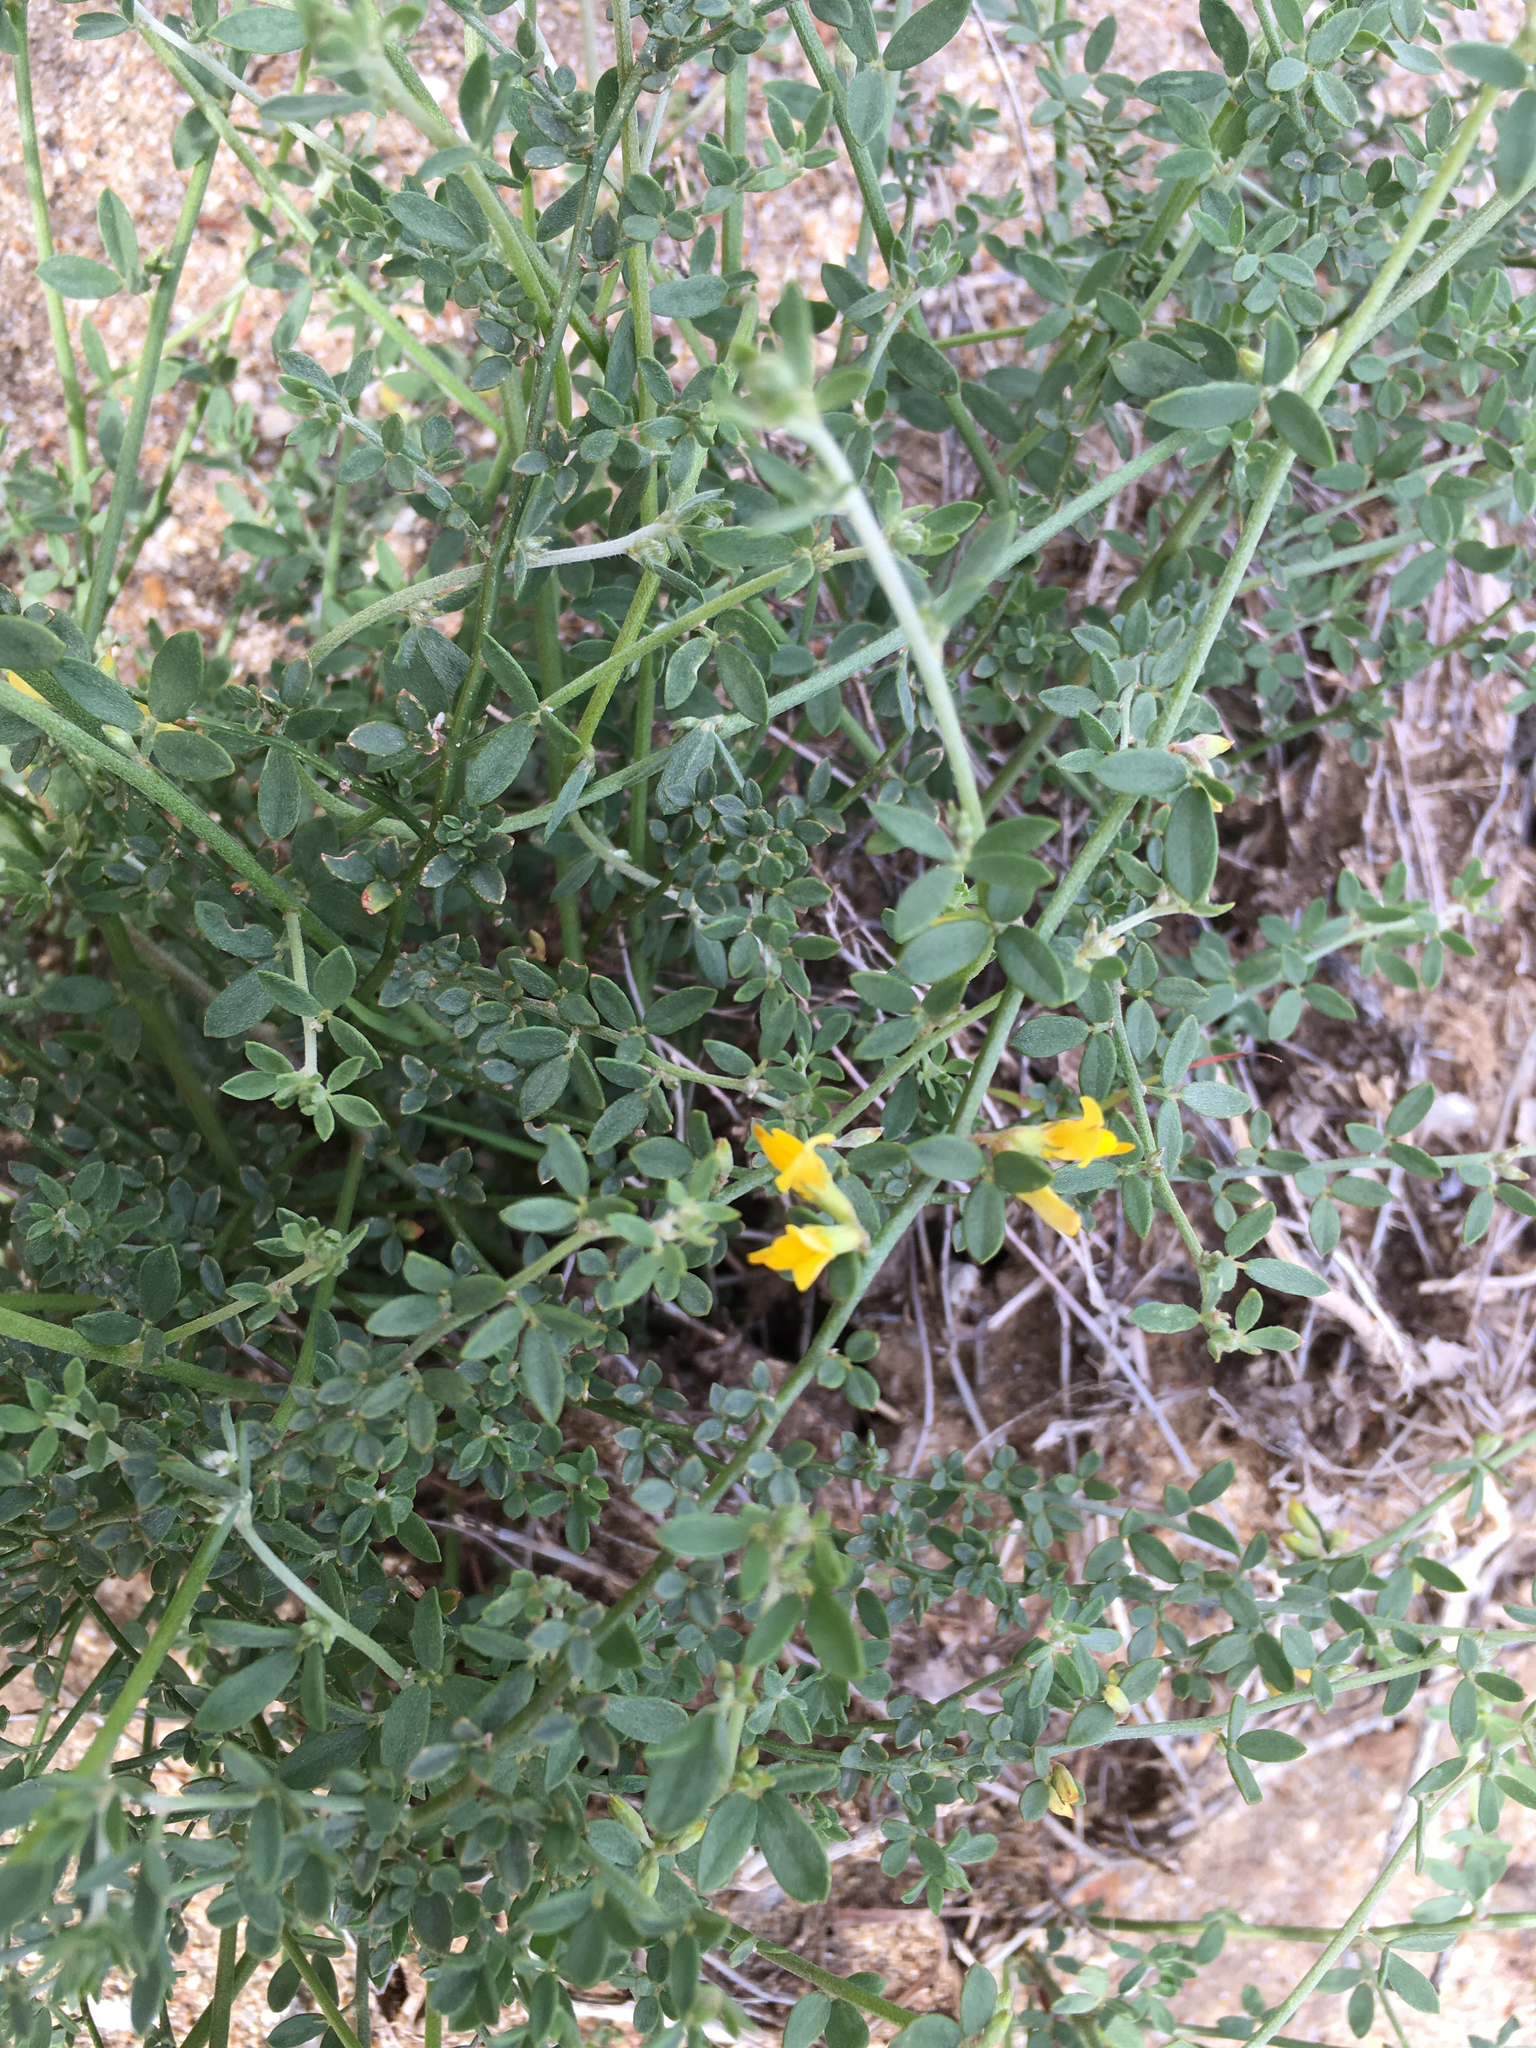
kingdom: Plantae
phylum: Tracheophyta
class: Magnoliopsida
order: Fabales
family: Fabaceae
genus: Acmispon
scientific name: Acmispon glaber
